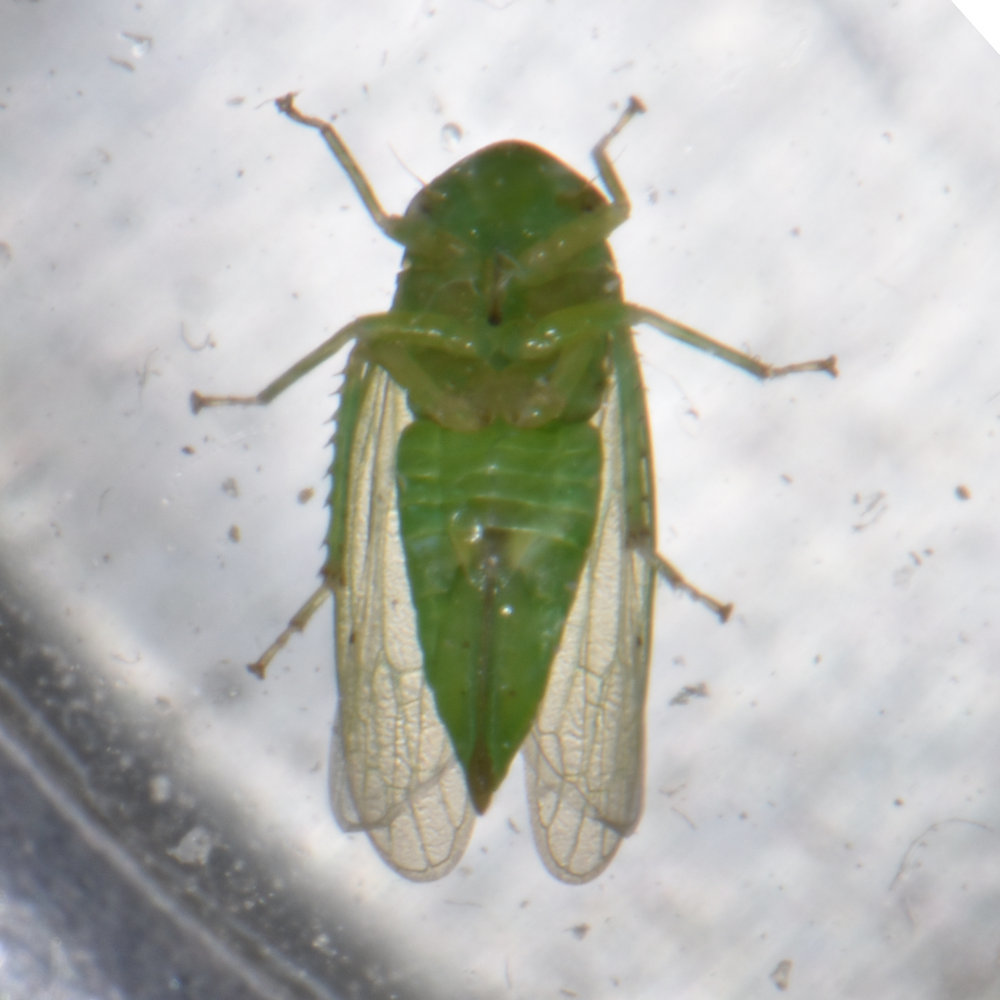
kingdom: Animalia
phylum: Arthropoda
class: Insecta
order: Hemiptera
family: Cicadellidae
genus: Macropsis
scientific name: Macropsis fumipennis
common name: The honeylocust leafhopper
